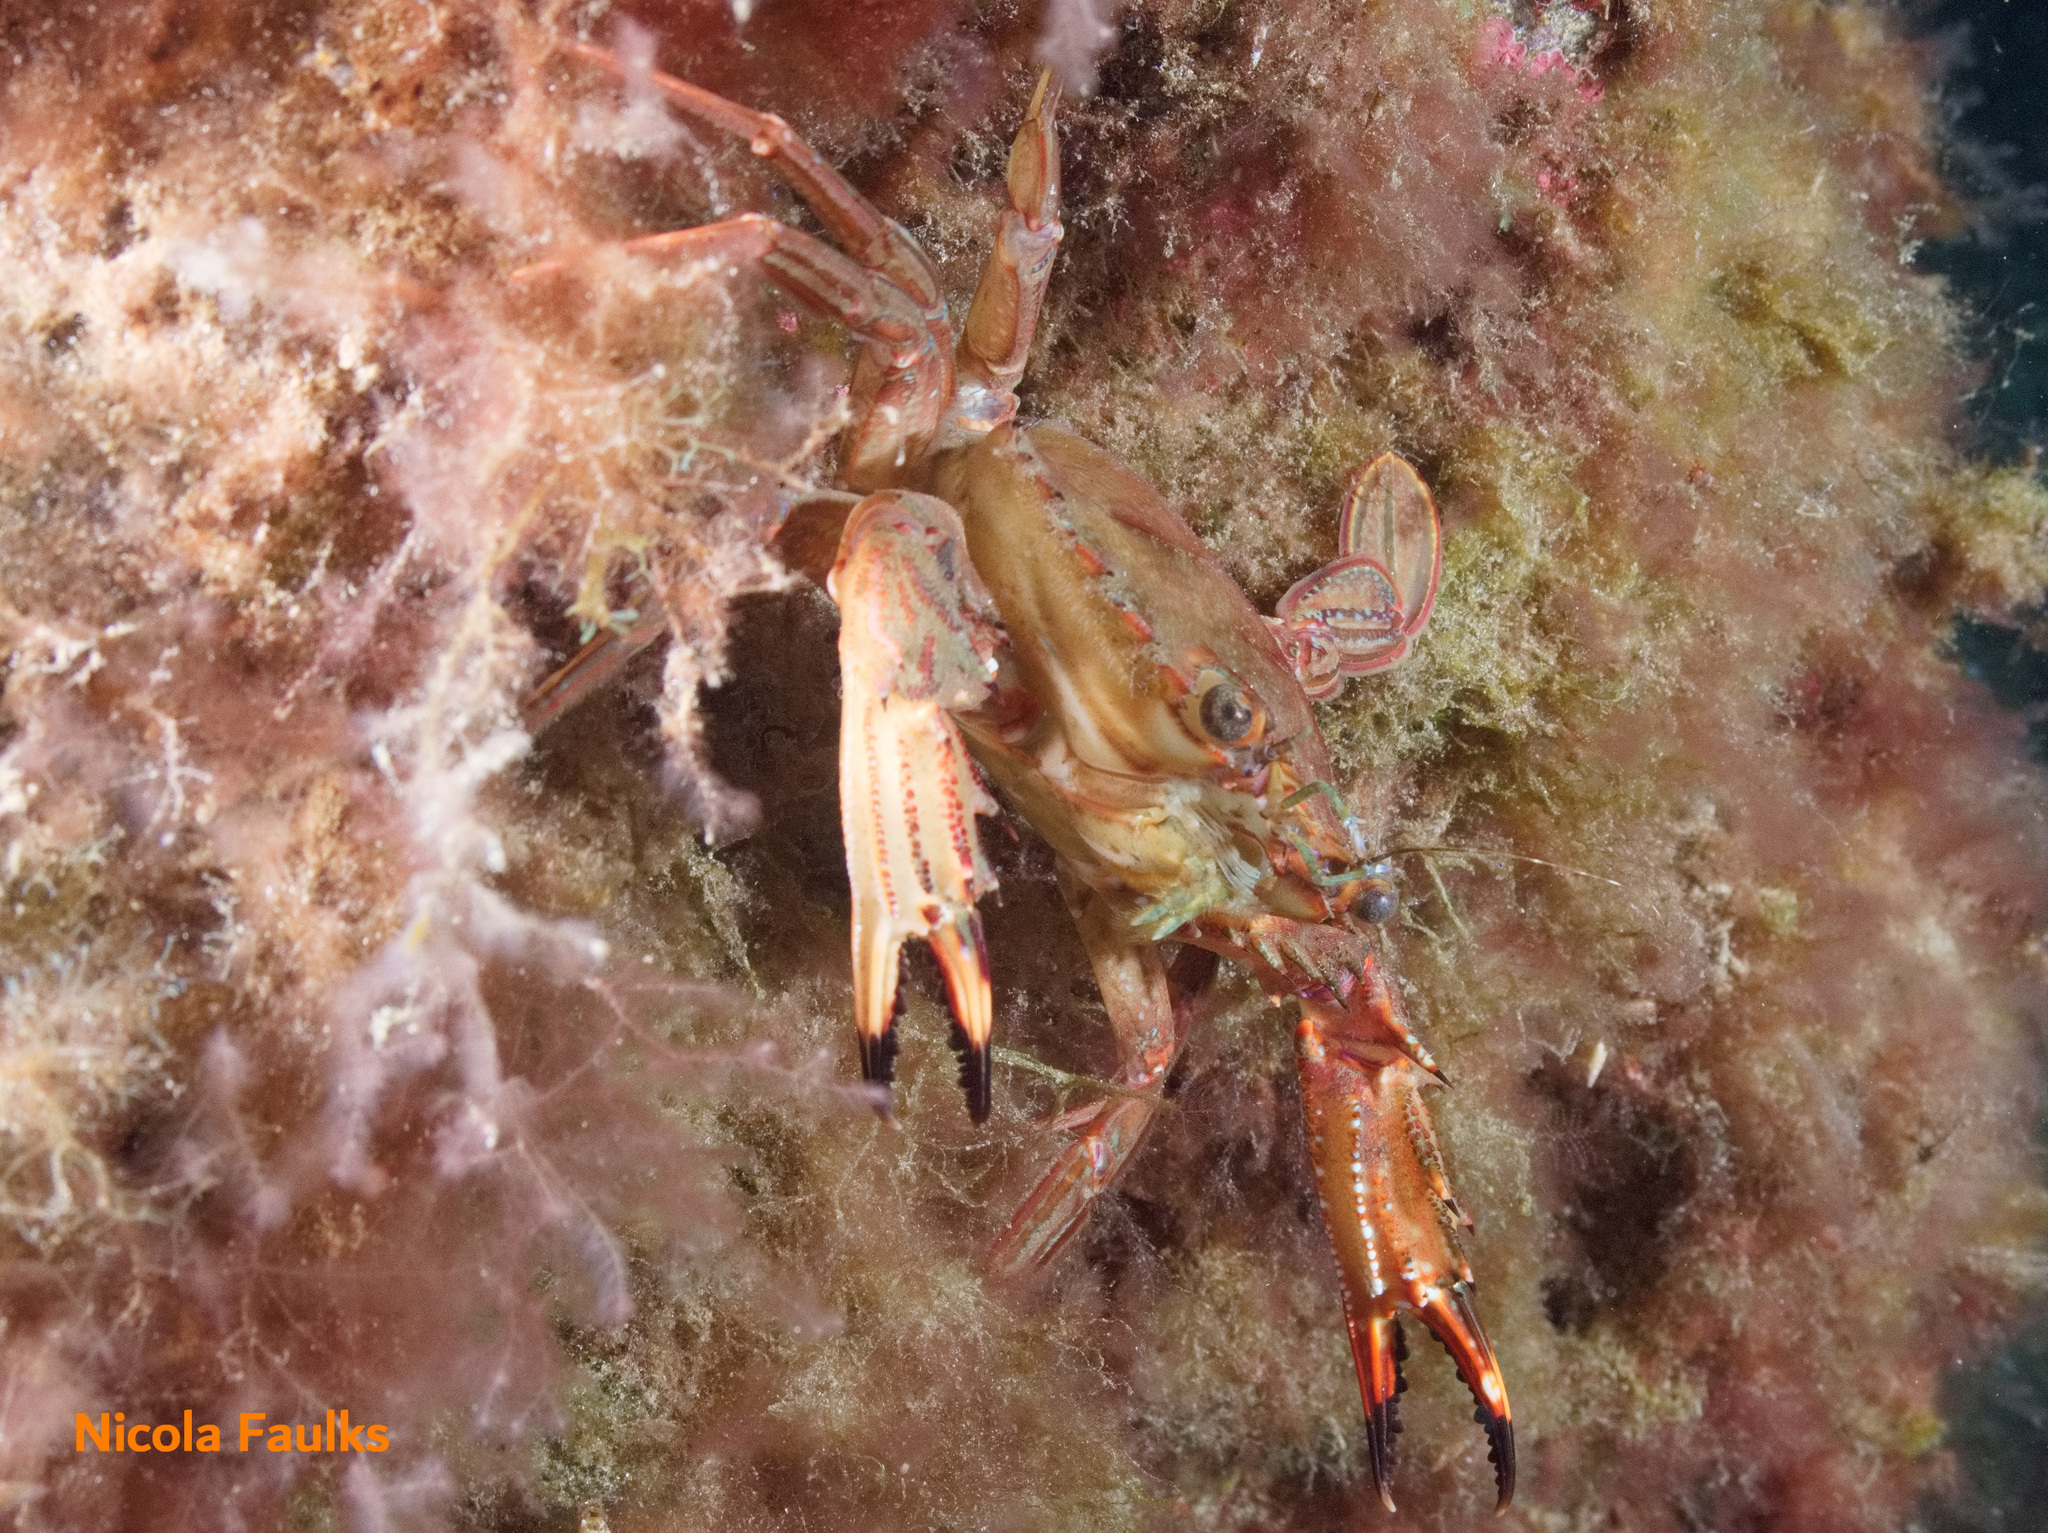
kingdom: Animalia
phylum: Arthropoda
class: Malacostraca
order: Decapoda
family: Portunidae
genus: Cronius
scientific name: Cronius ruber
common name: Red crab
